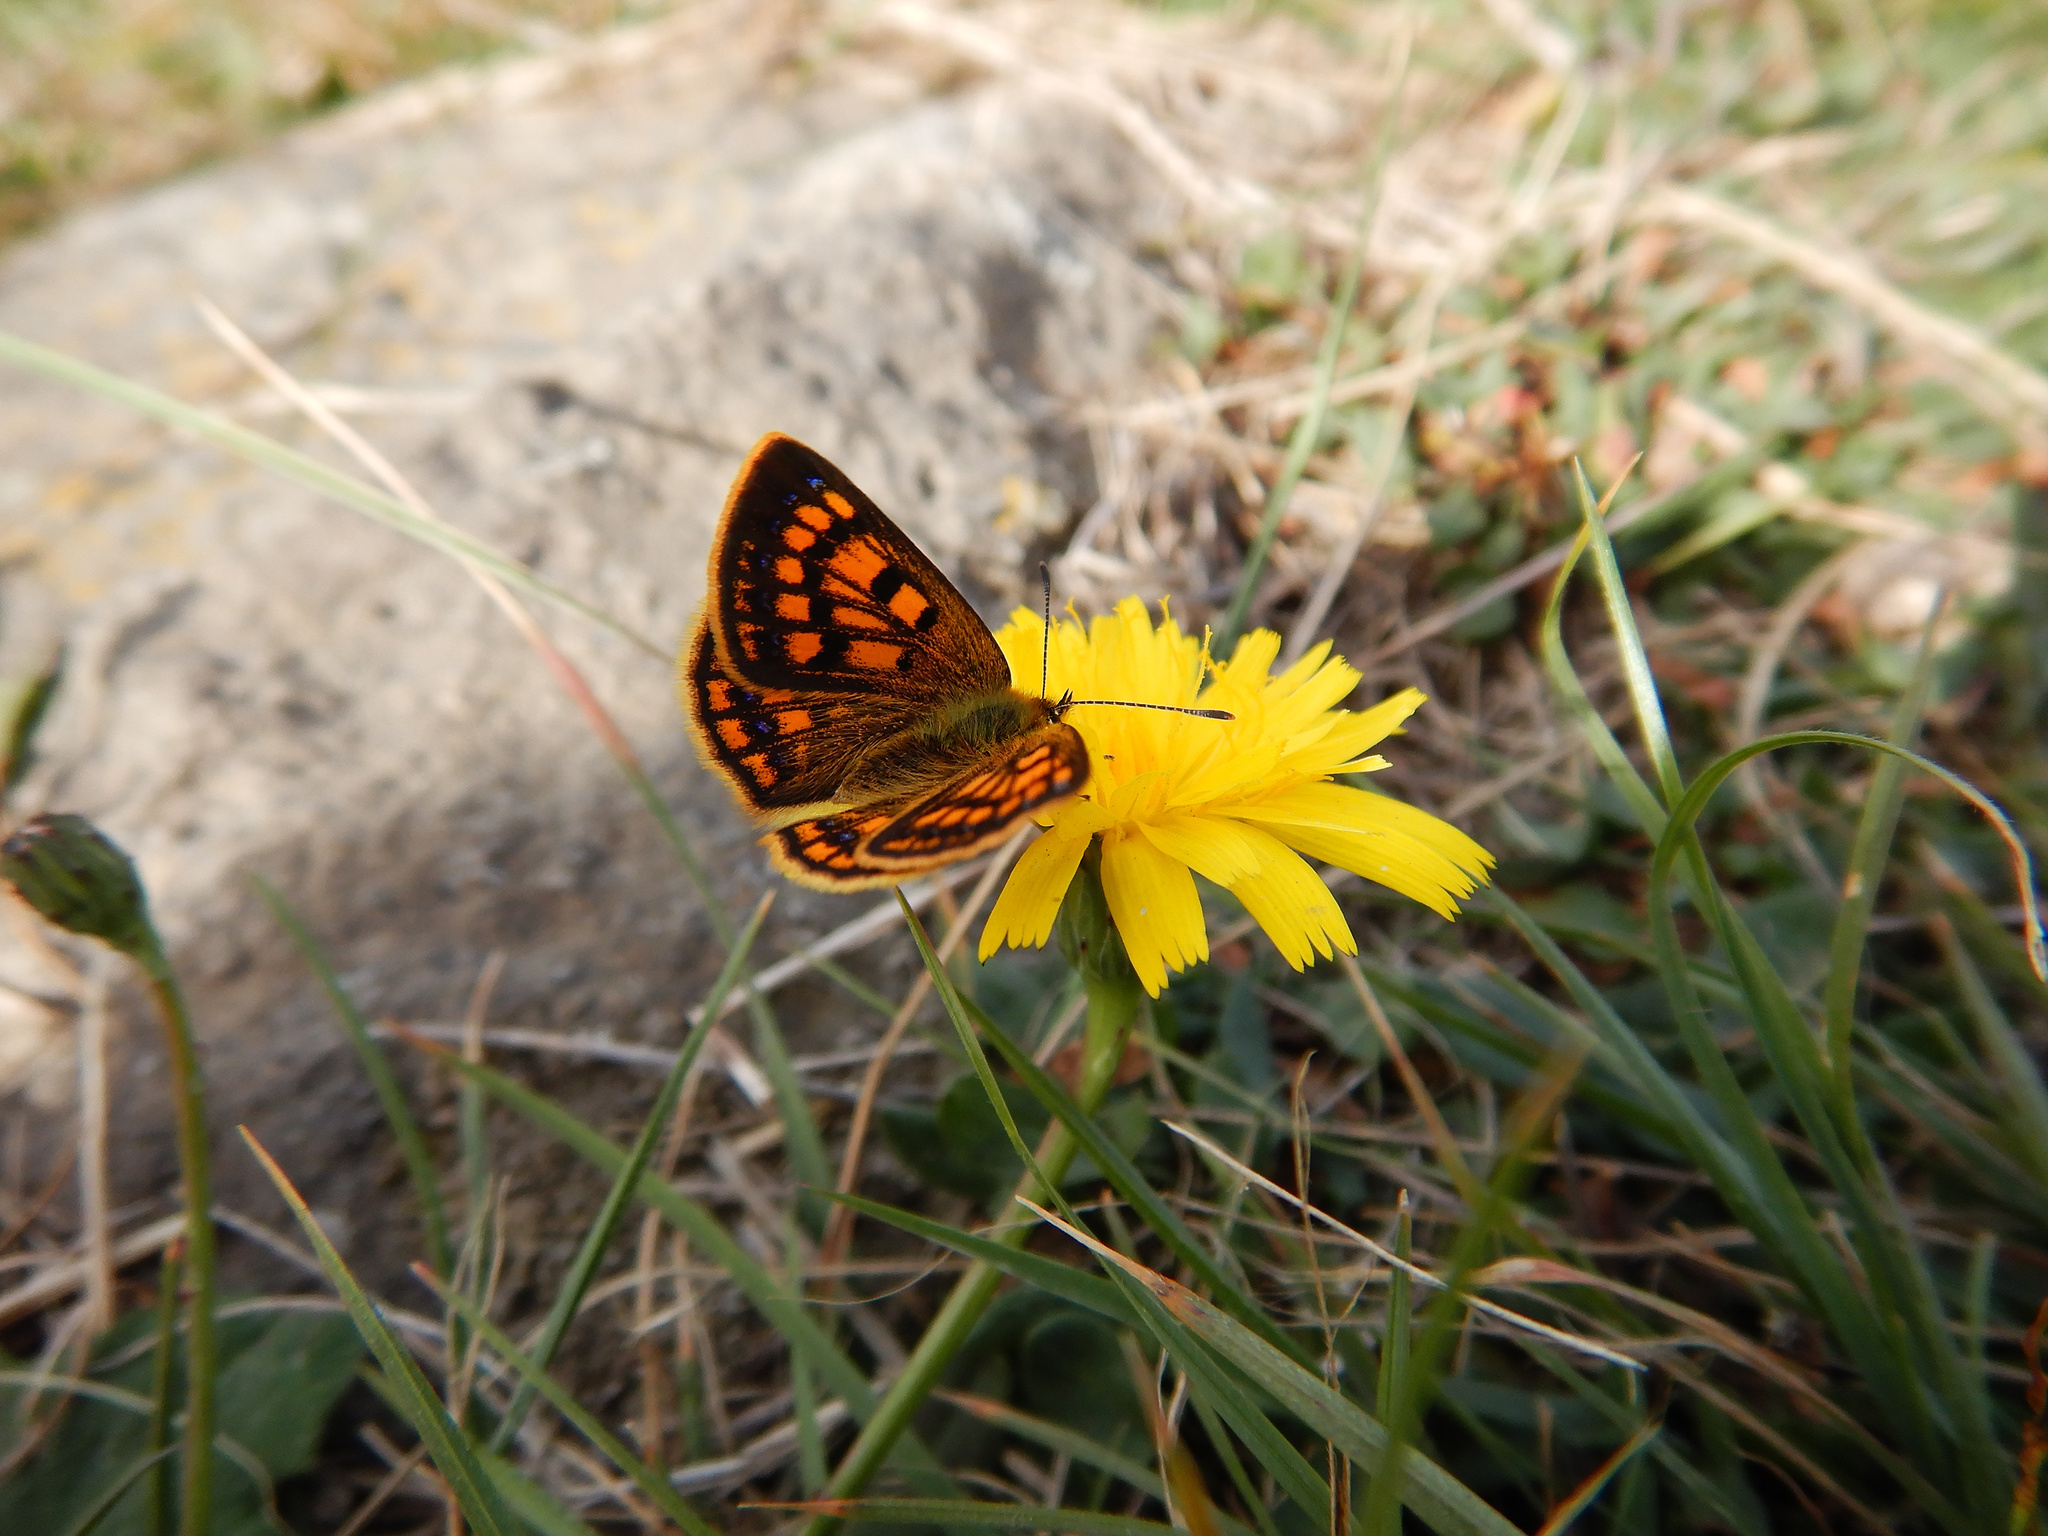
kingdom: Animalia
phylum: Arthropoda
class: Insecta
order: Lepidoptera
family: Lycaenidae
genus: Lycaena
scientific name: Lycaena
